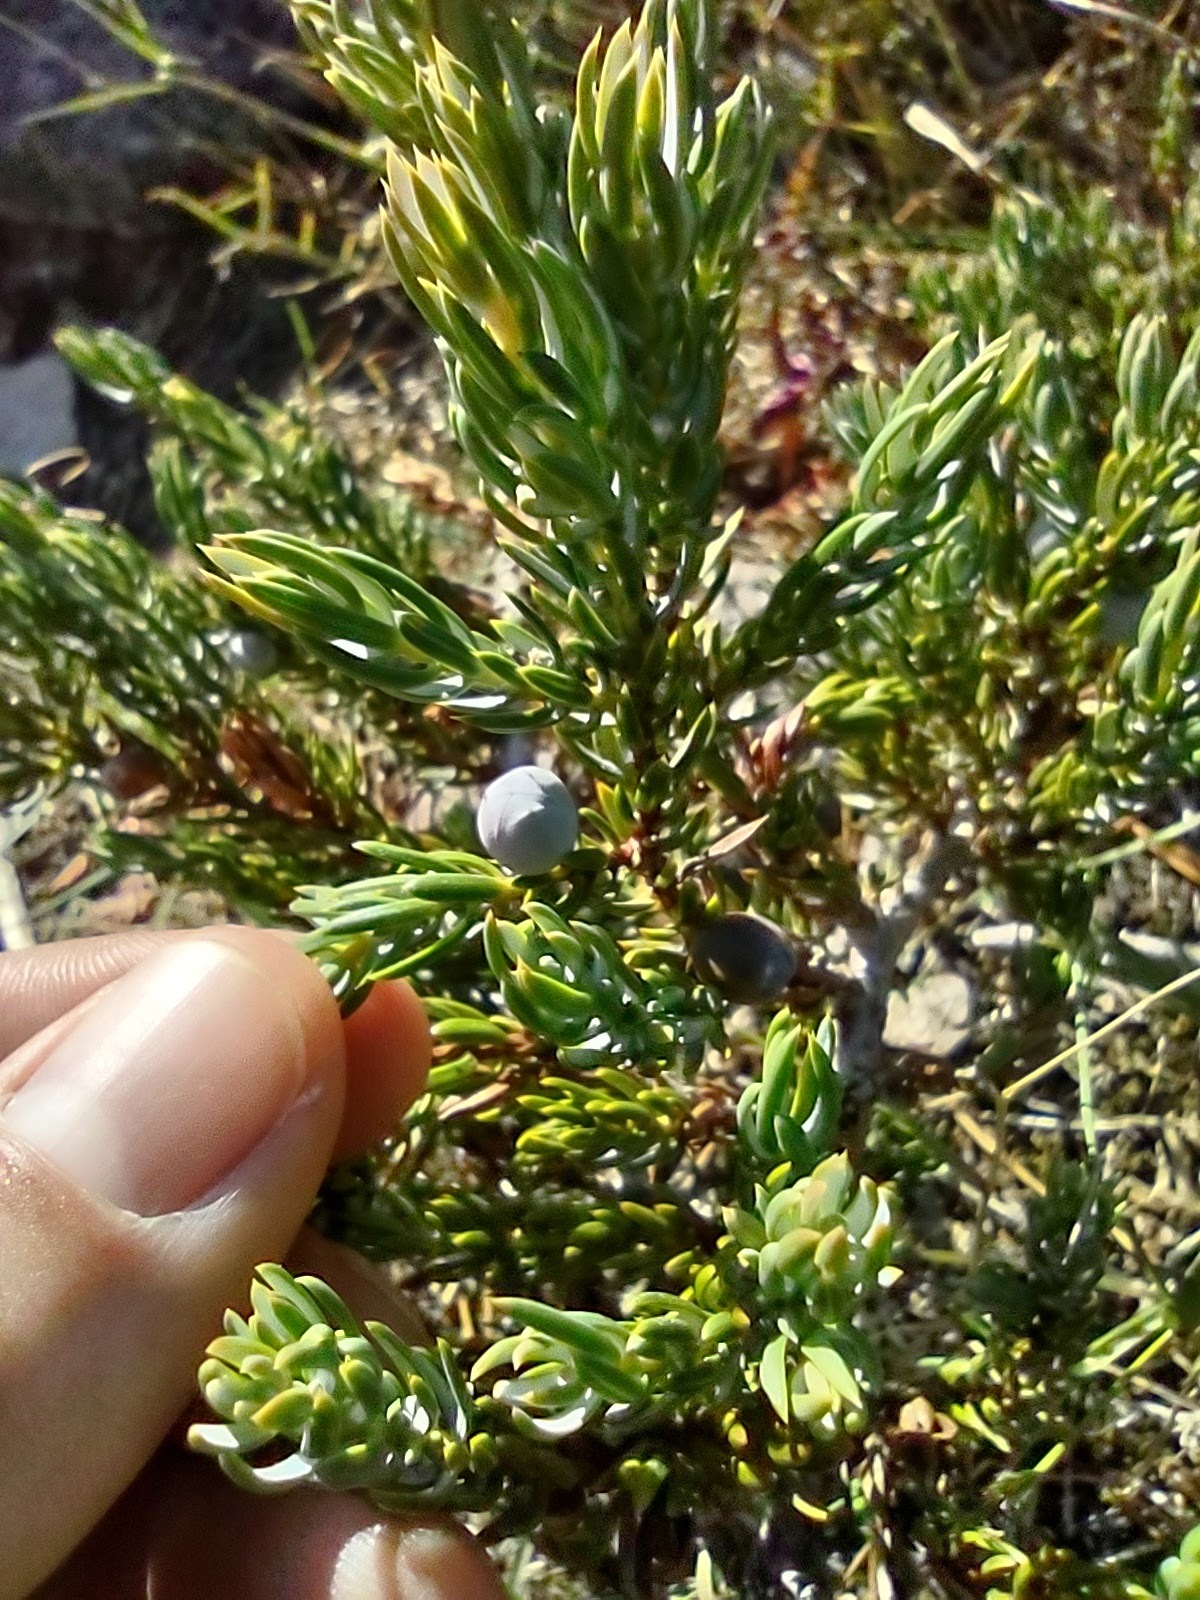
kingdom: Plantae
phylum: Tracheophyta
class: Pinopsida
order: Pinales
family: Cupressaceae
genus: Juniperus
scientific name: Juniperus communis
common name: Common juniper
